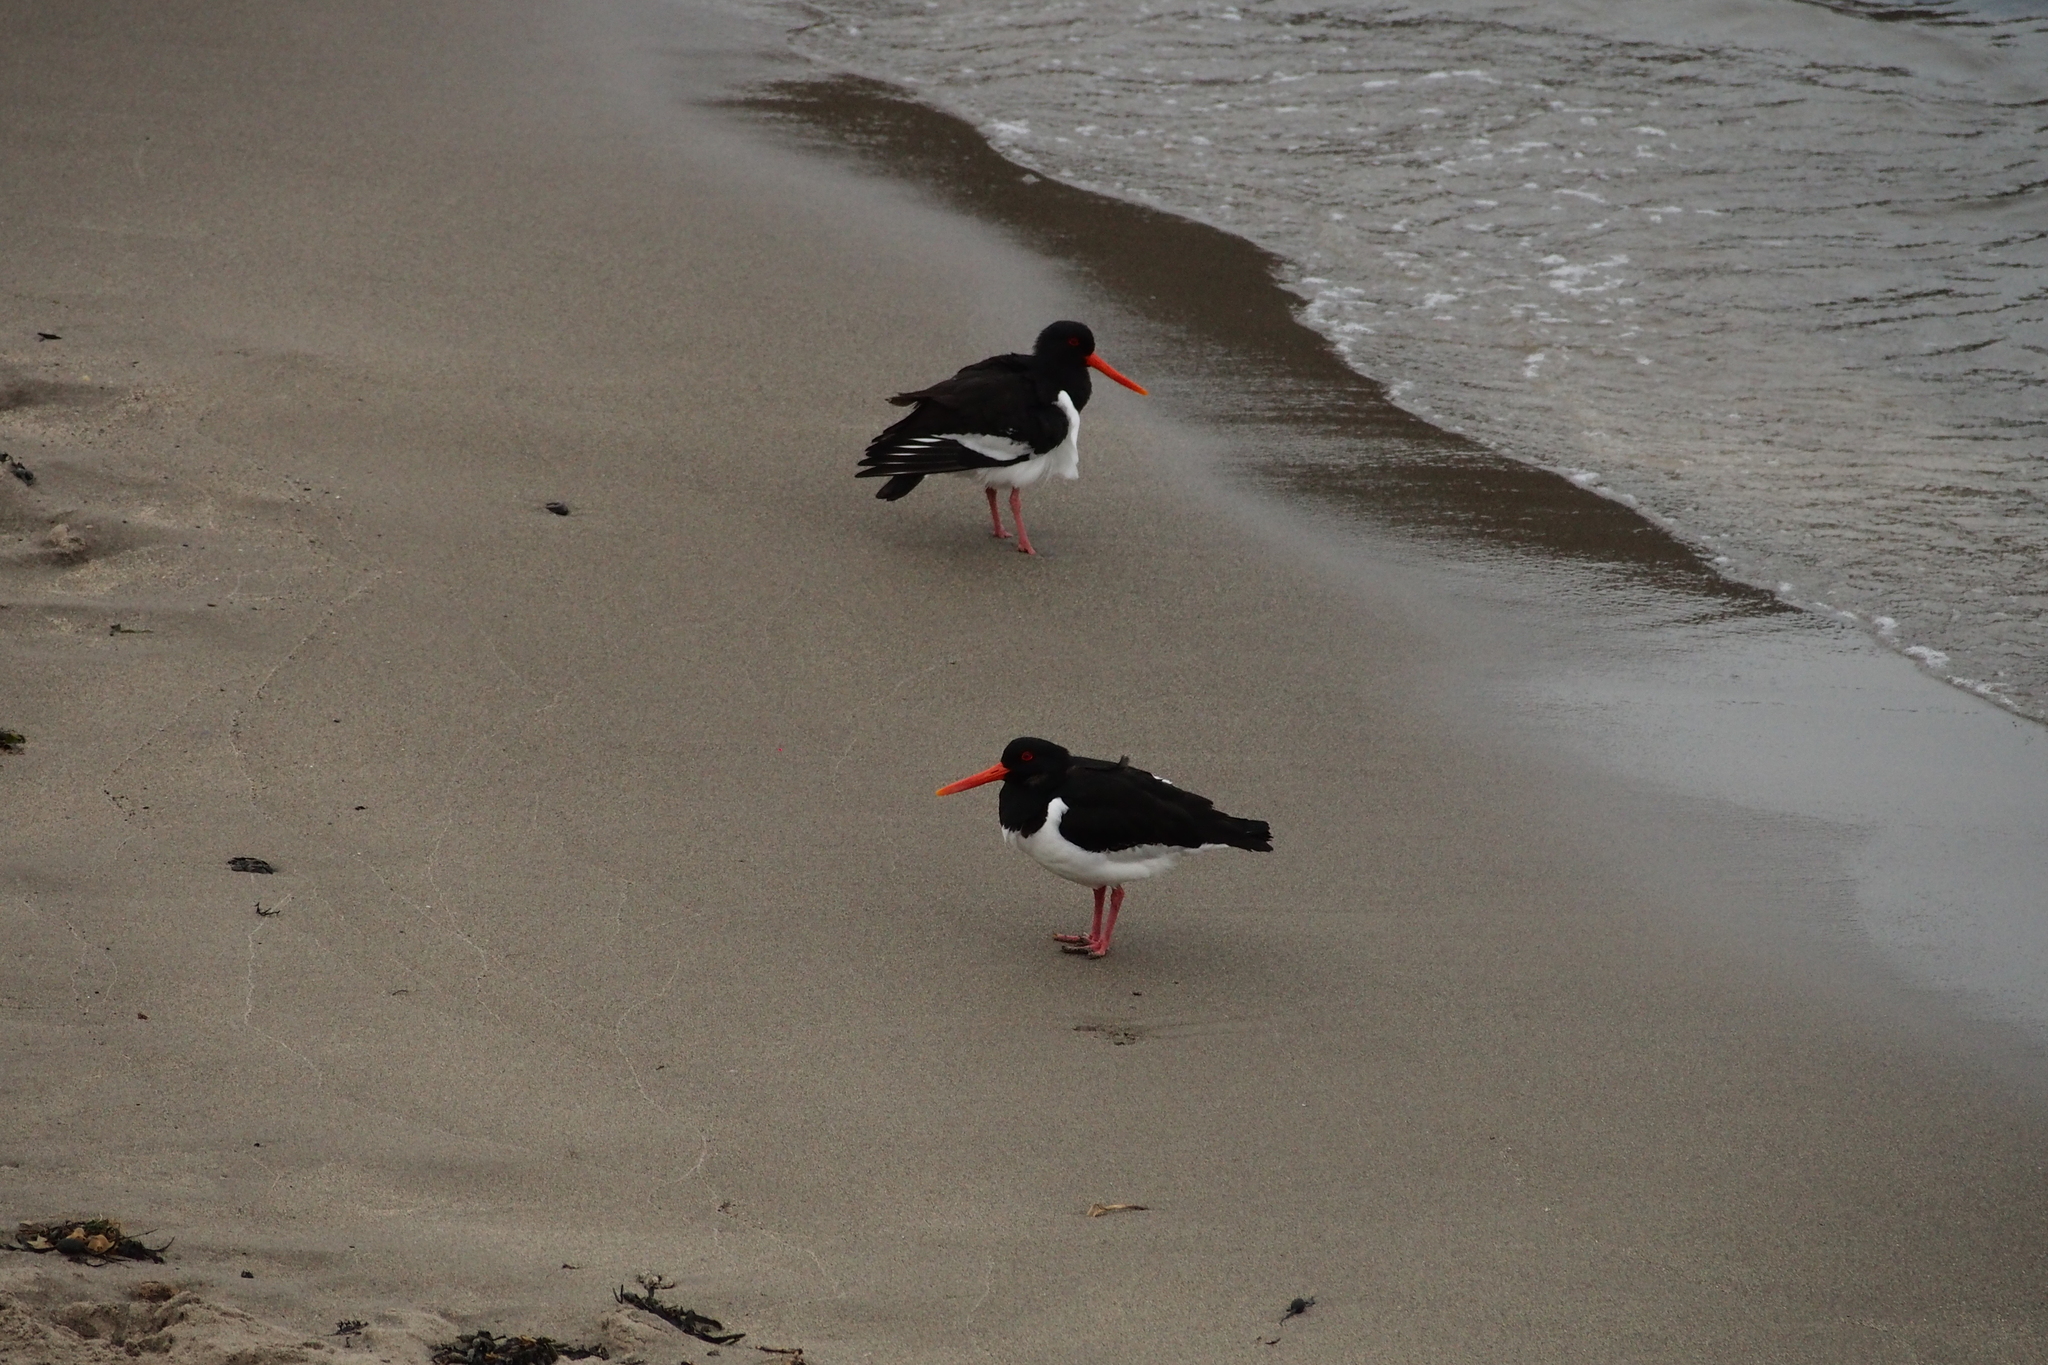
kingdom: Animalia
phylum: Chordata
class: Aves
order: Charadriiformes
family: Haematopodidae
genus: Haematopus
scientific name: Haematopus ostralegus
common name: Eurasian oystercatcher
